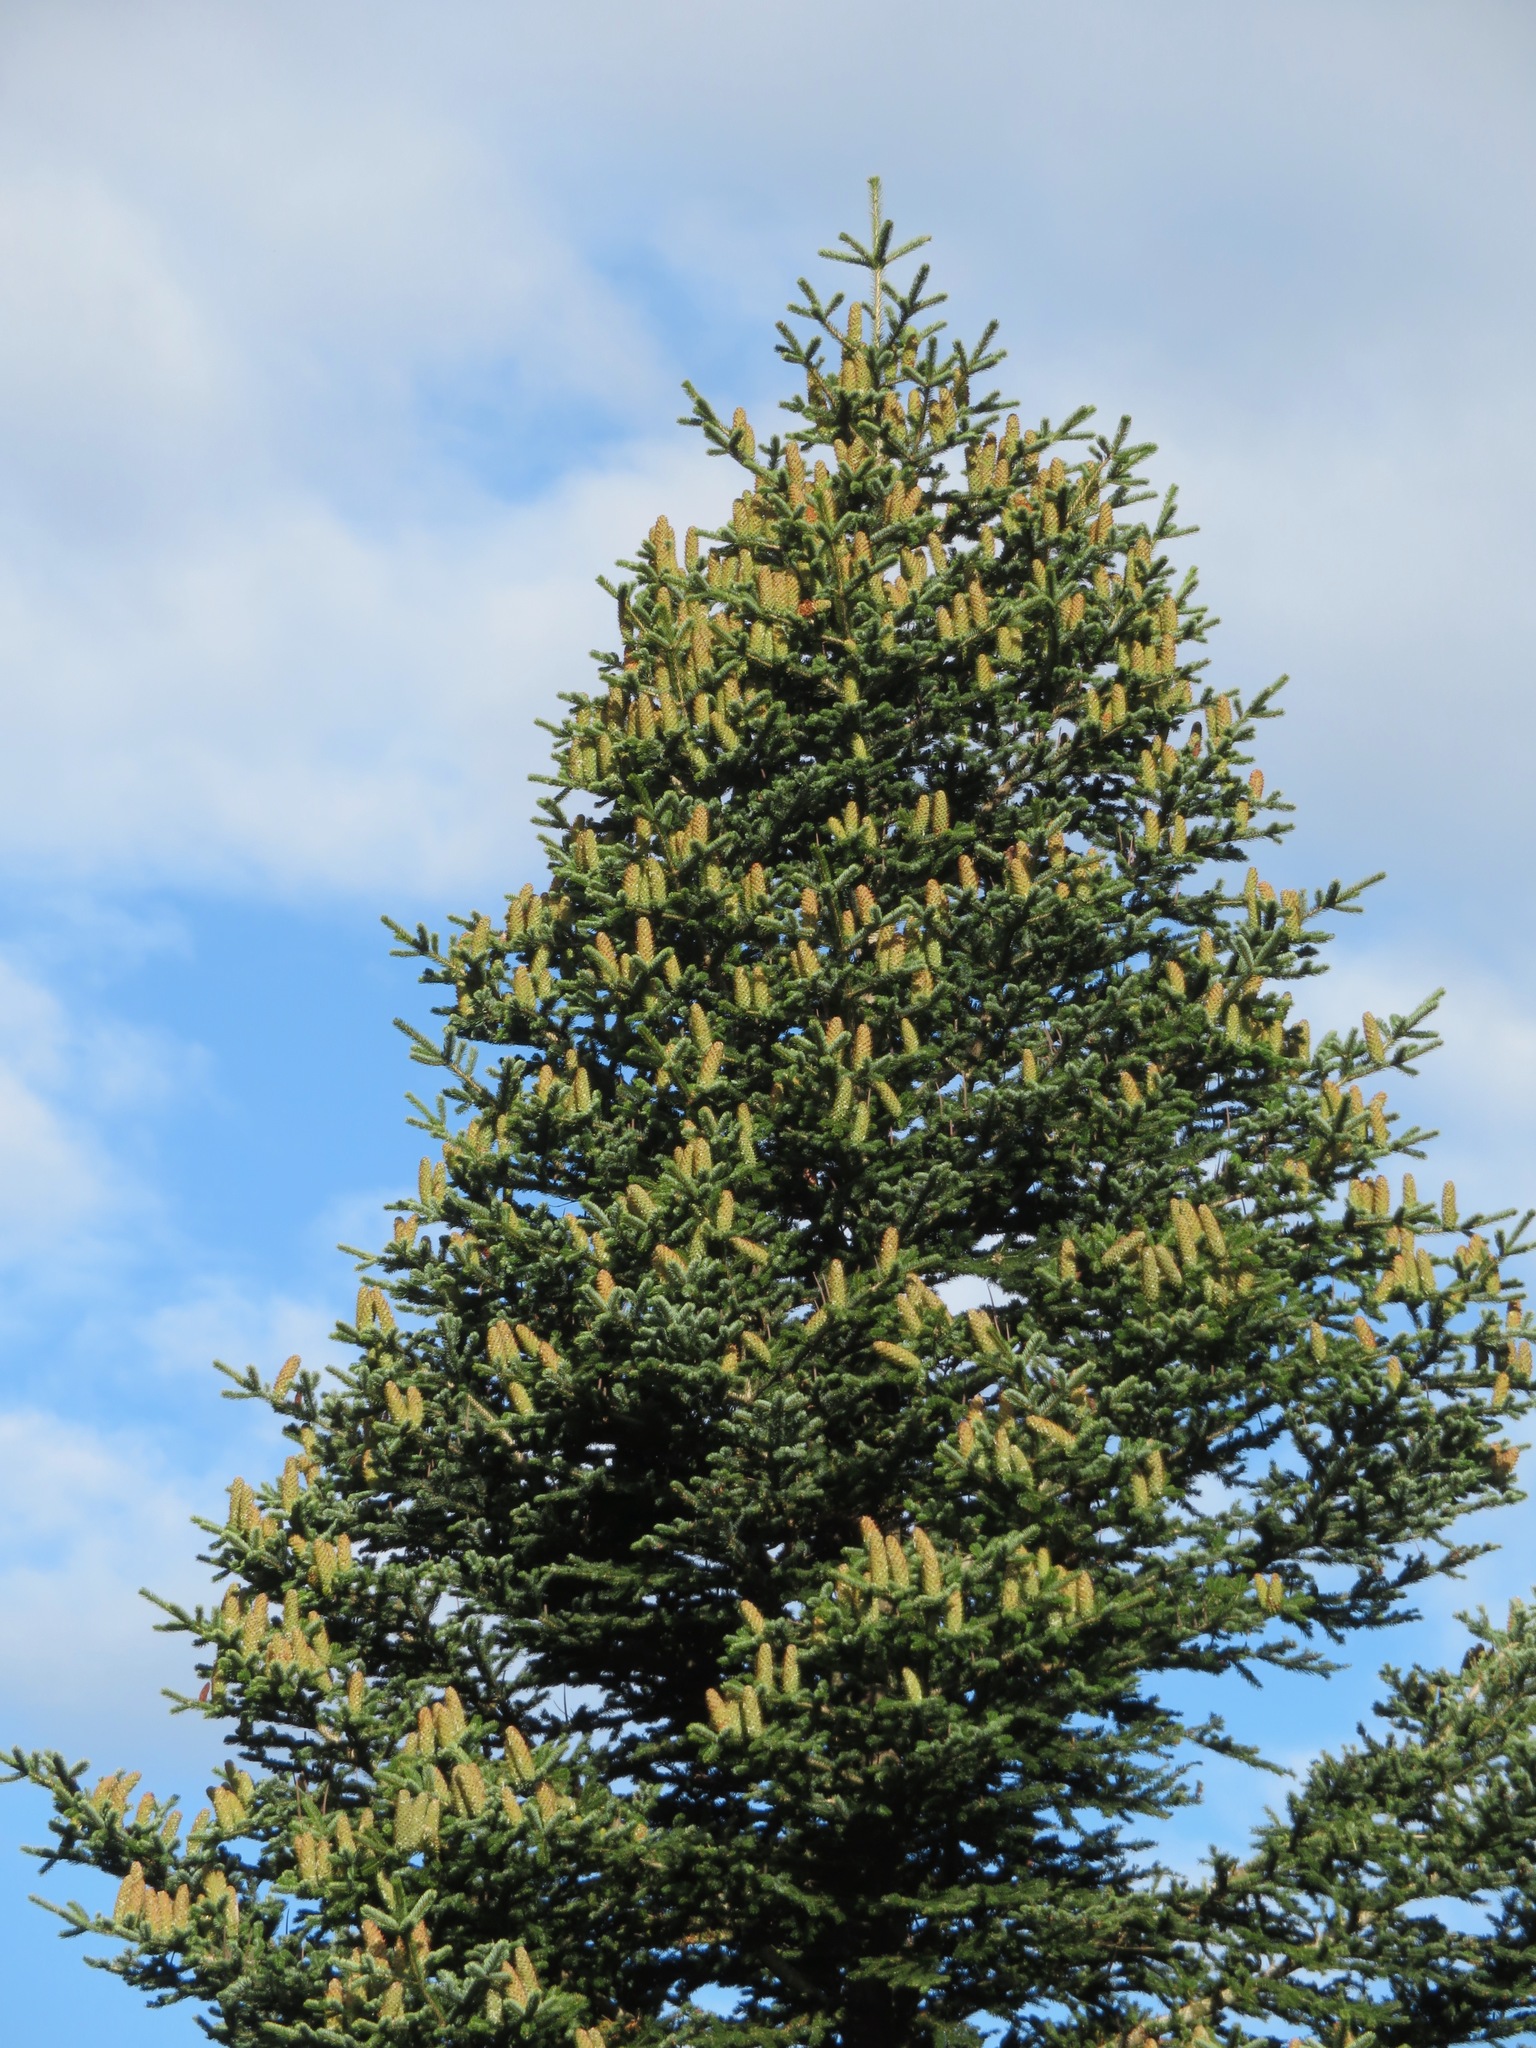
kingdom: Plantae
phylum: Tracheophyta
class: Pinopsida
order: Pinales
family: Pinaceae
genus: Abies
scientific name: Abies alba
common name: Silver fir
